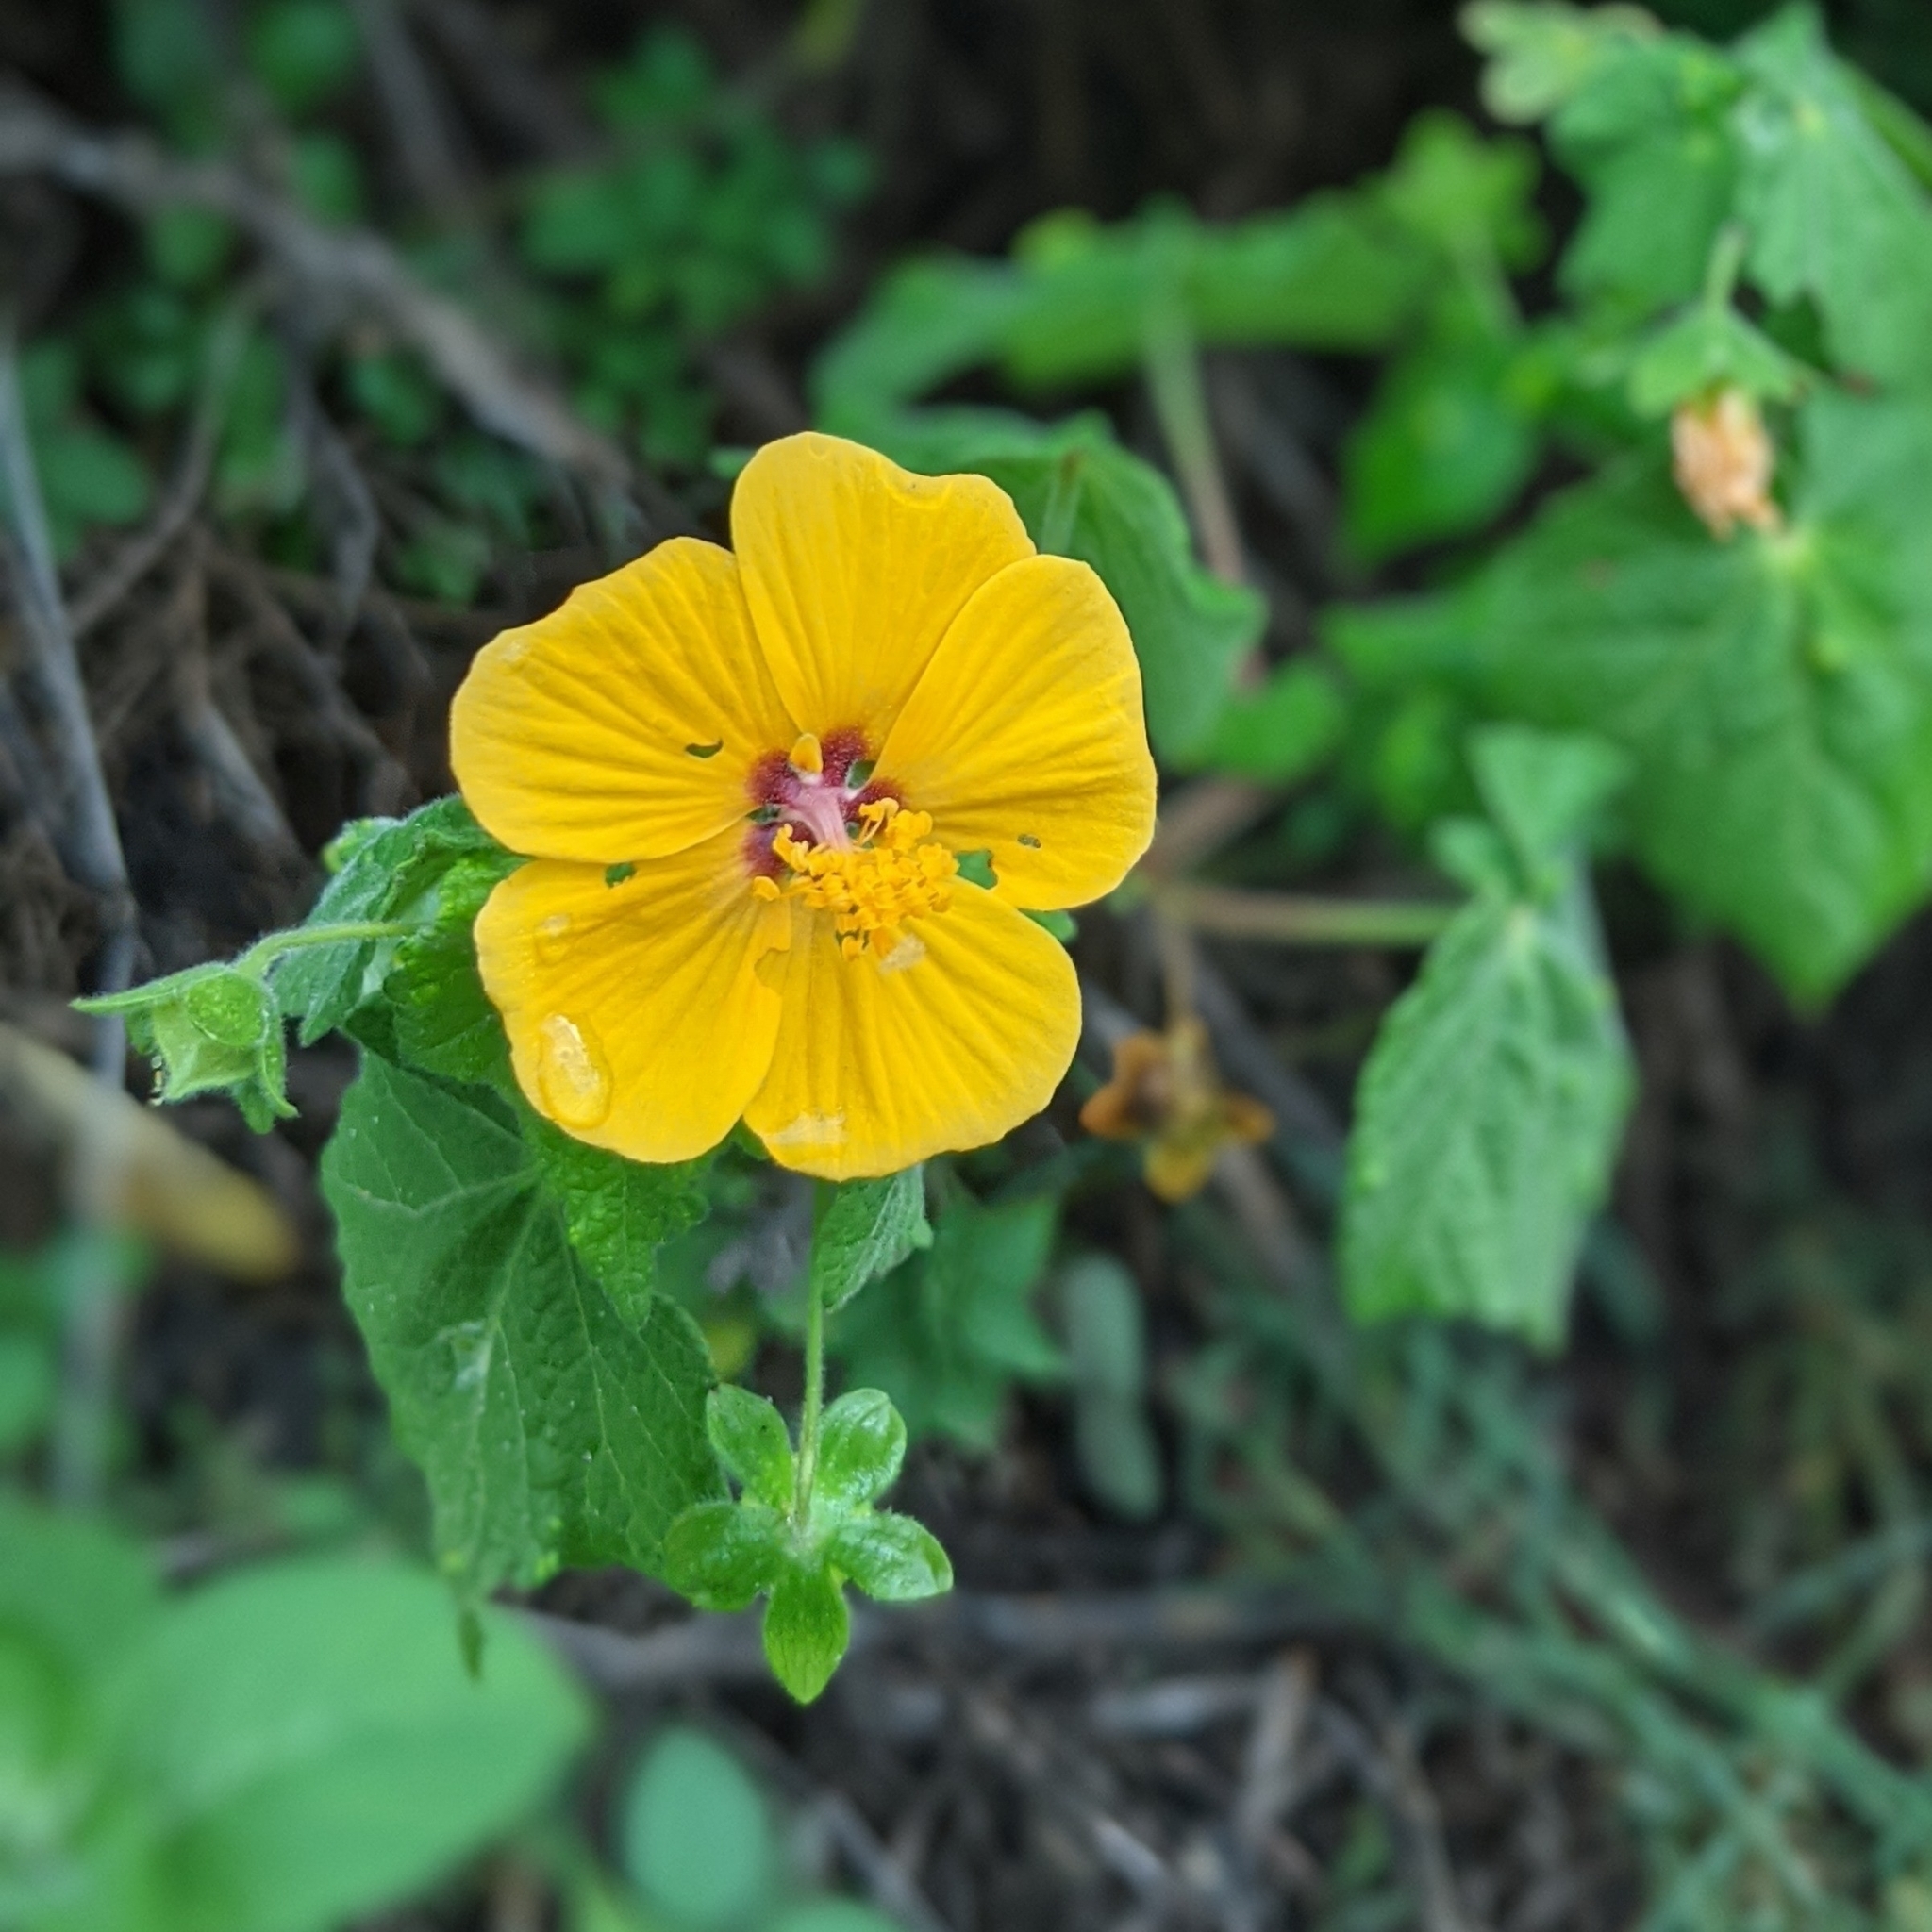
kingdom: Plantae
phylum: Tracheophyta
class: Magnoliopsida
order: Malvales
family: Malvaceae
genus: Pavonia
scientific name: Pavonia burchellii
